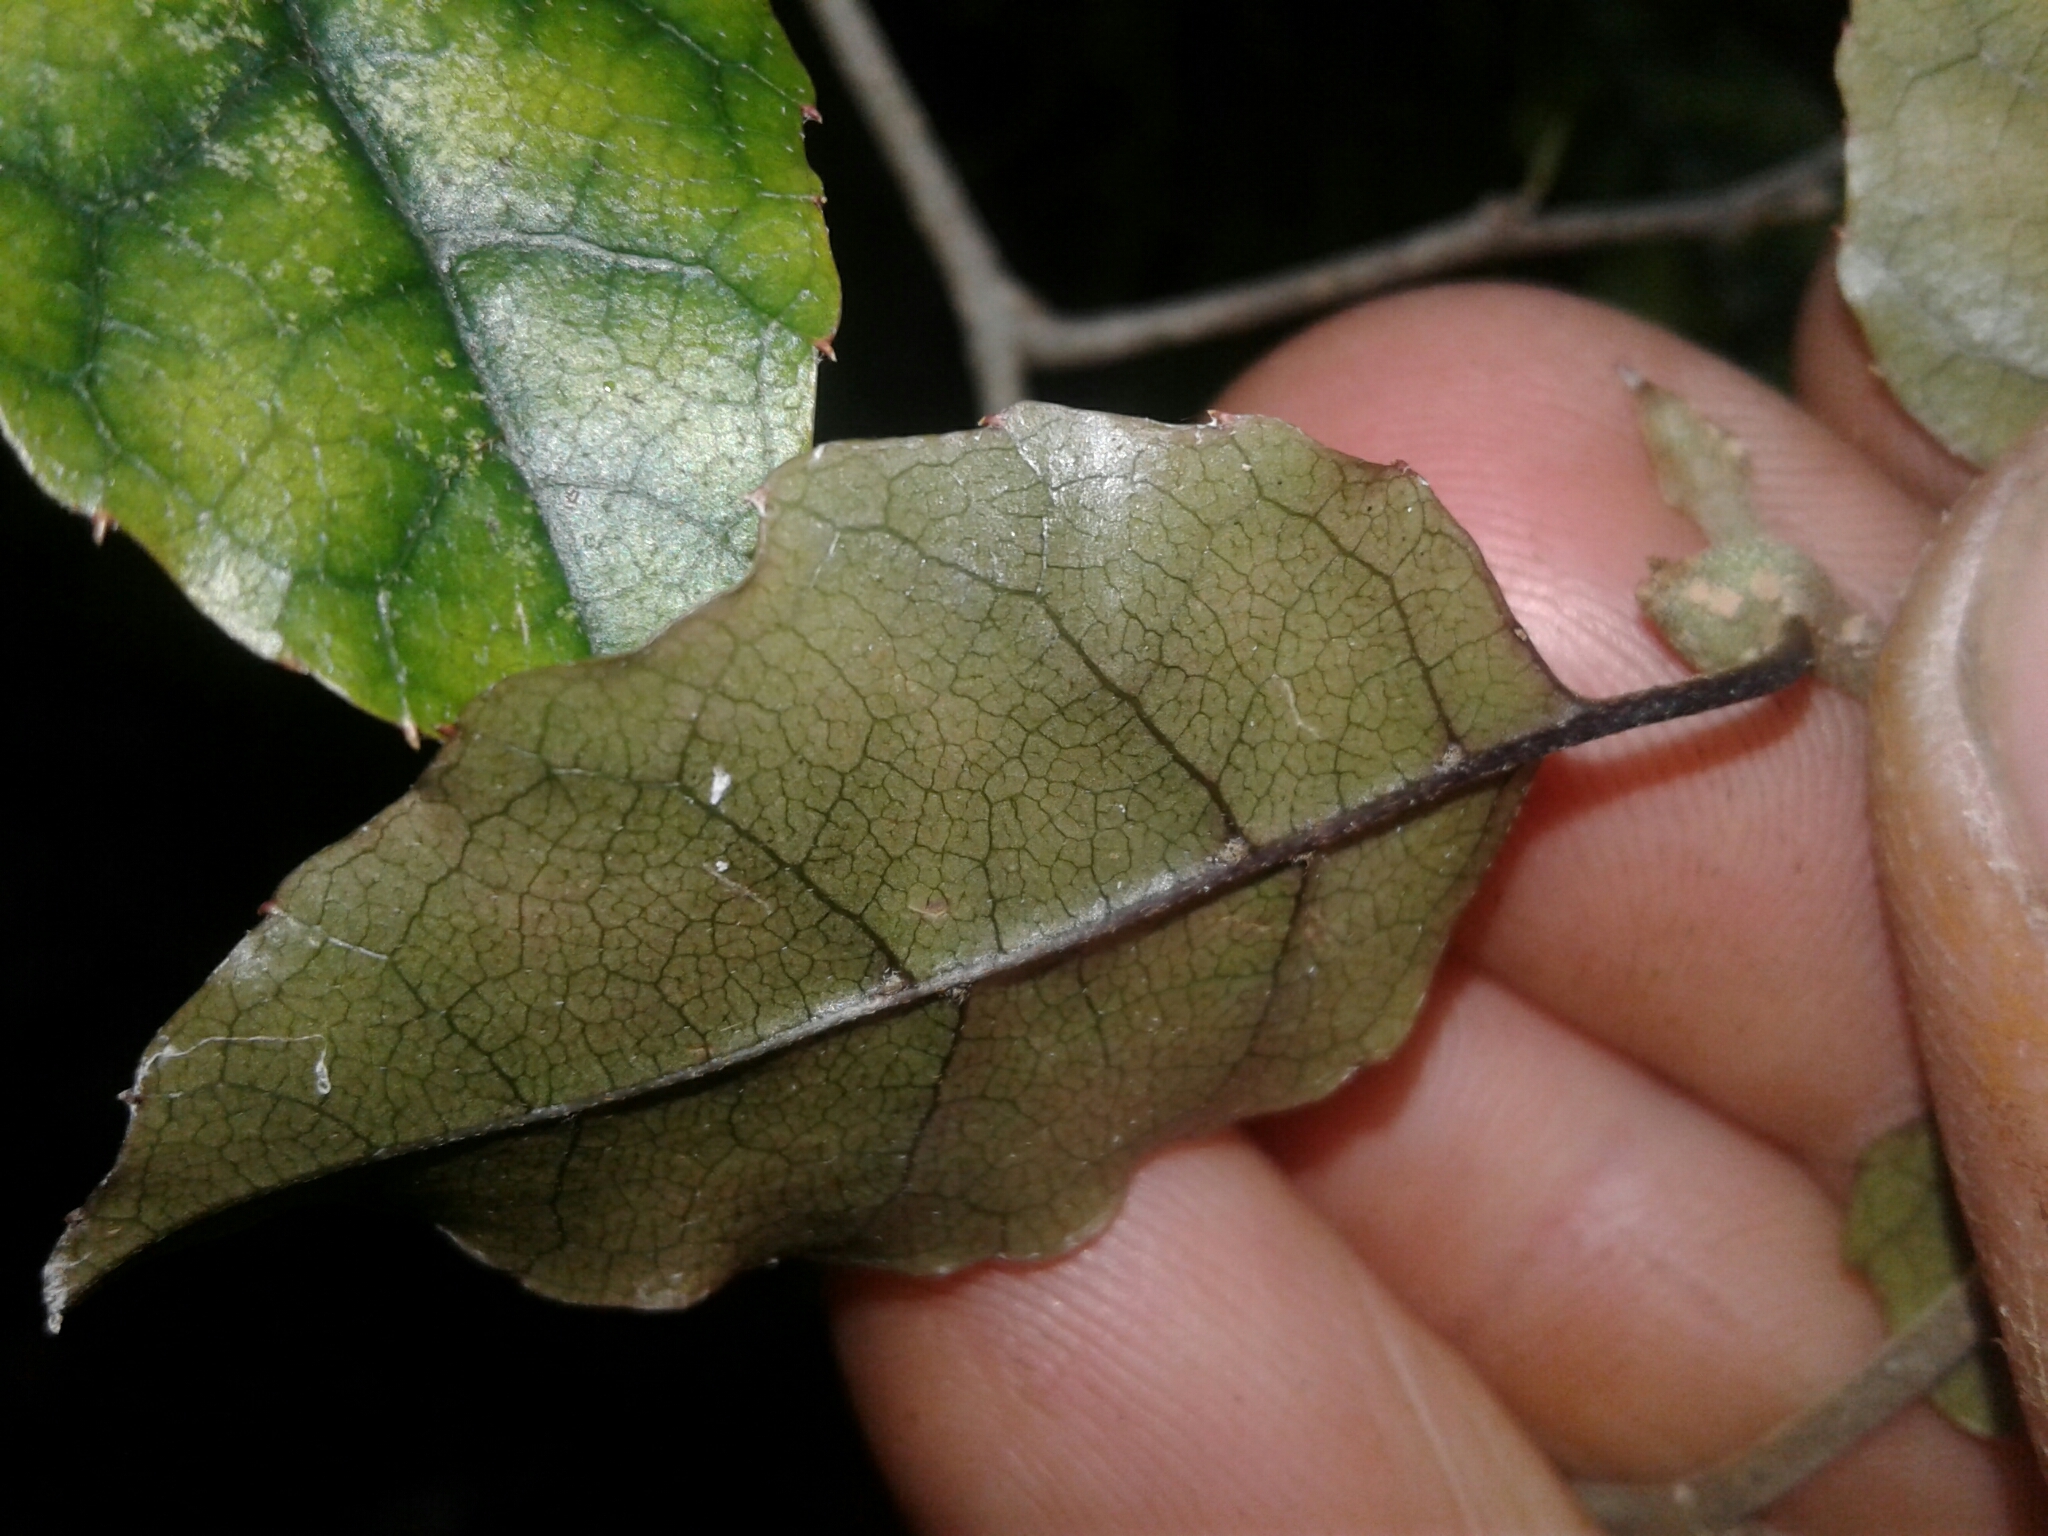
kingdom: Plantae
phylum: Tracheophyta
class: Magnoliopsida
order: Asterales
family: Rousseaceae
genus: Carpodetus
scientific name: Carpodetus serratus
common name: White mapau
